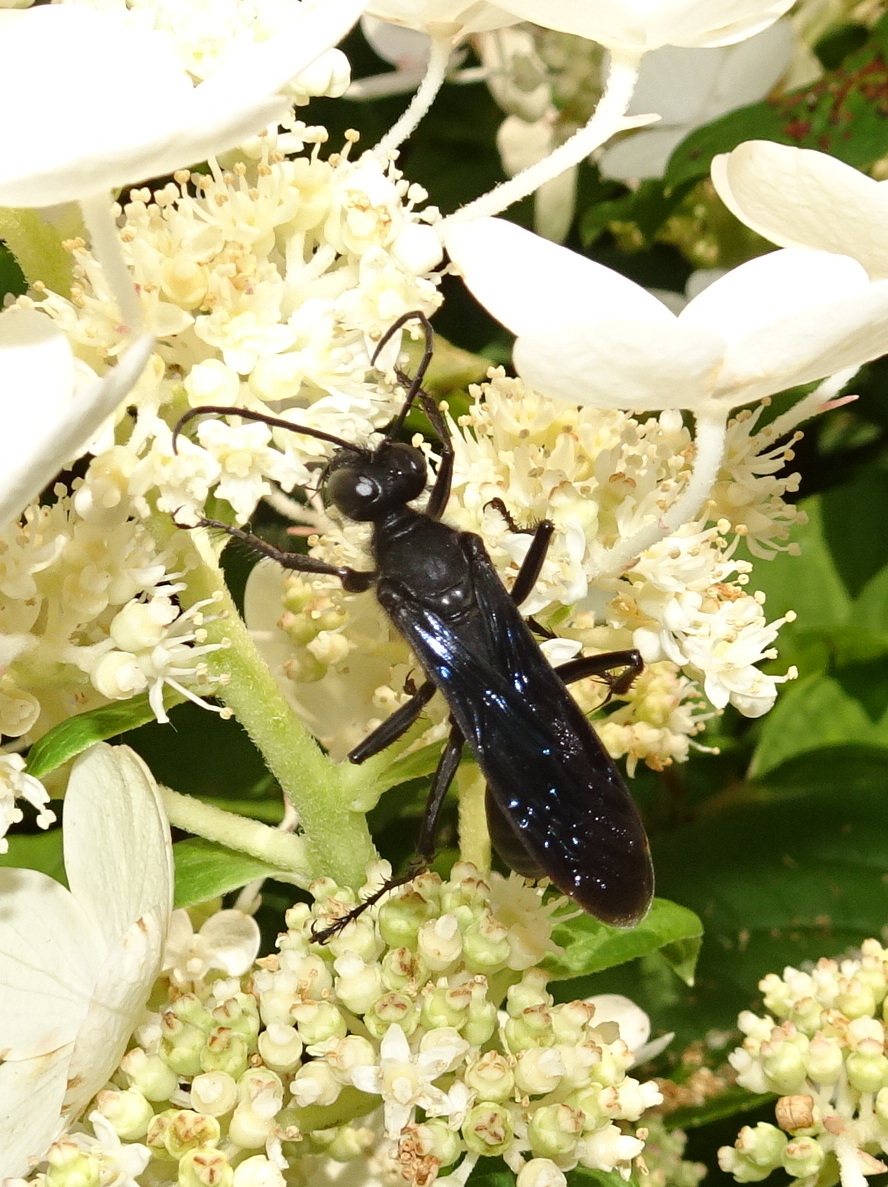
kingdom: Animalia
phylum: Arthropoda
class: Insecta
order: Hymenoptera
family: Sphecidae
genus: Sphex
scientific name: Sphex pensylvanicus
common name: Great black digger wasp
